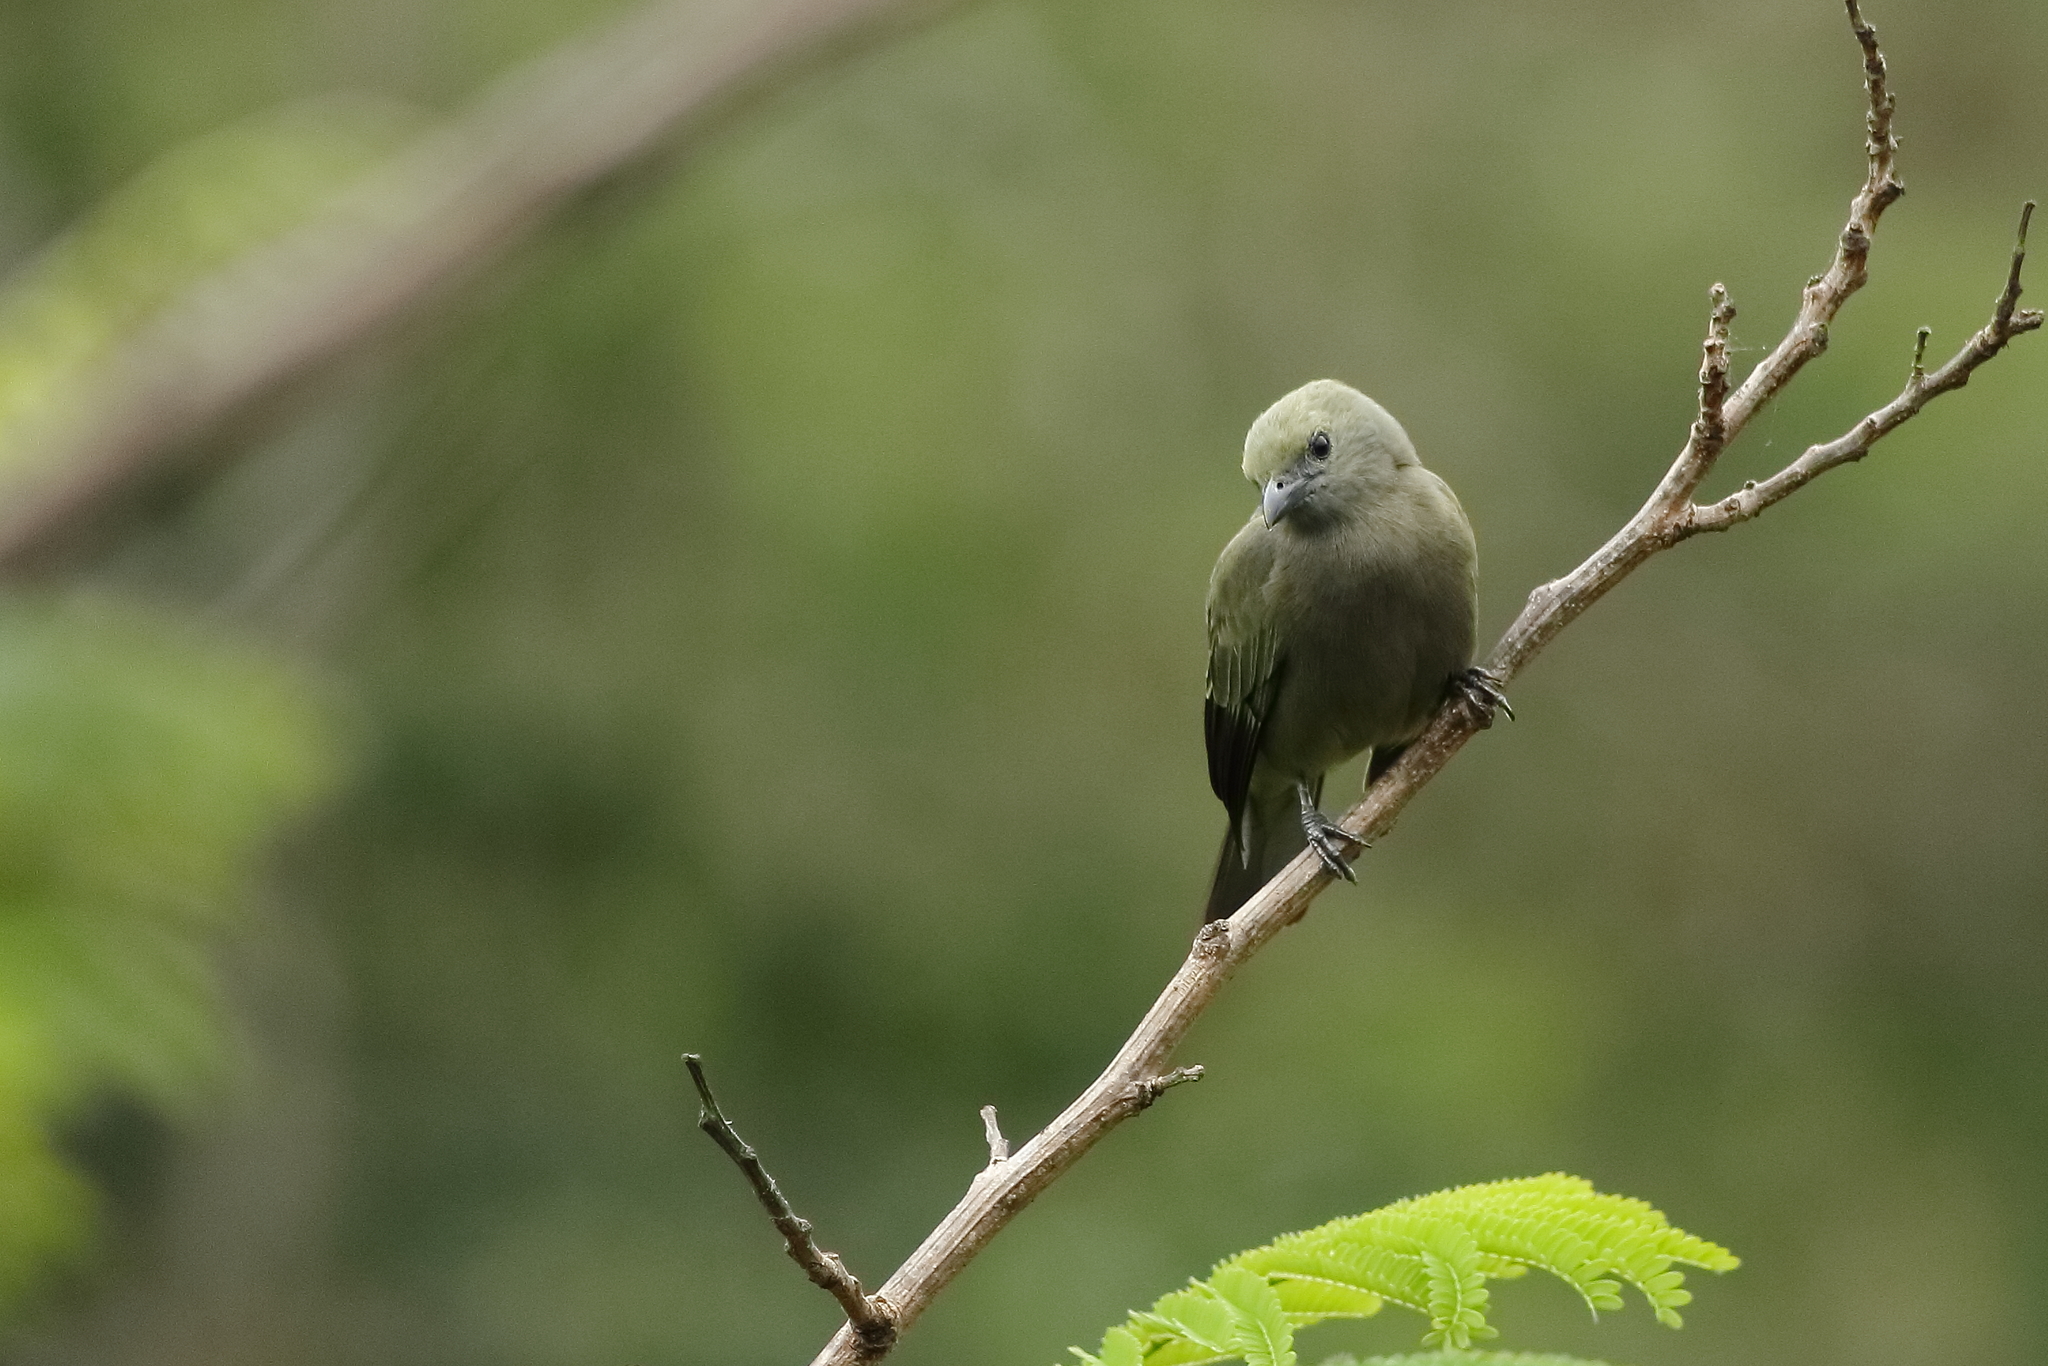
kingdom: Animalia
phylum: Chordata
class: Aves
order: Passeriformes
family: Thraupidae
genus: Thraupis
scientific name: Thraupis palmarum
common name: Palm tanager
